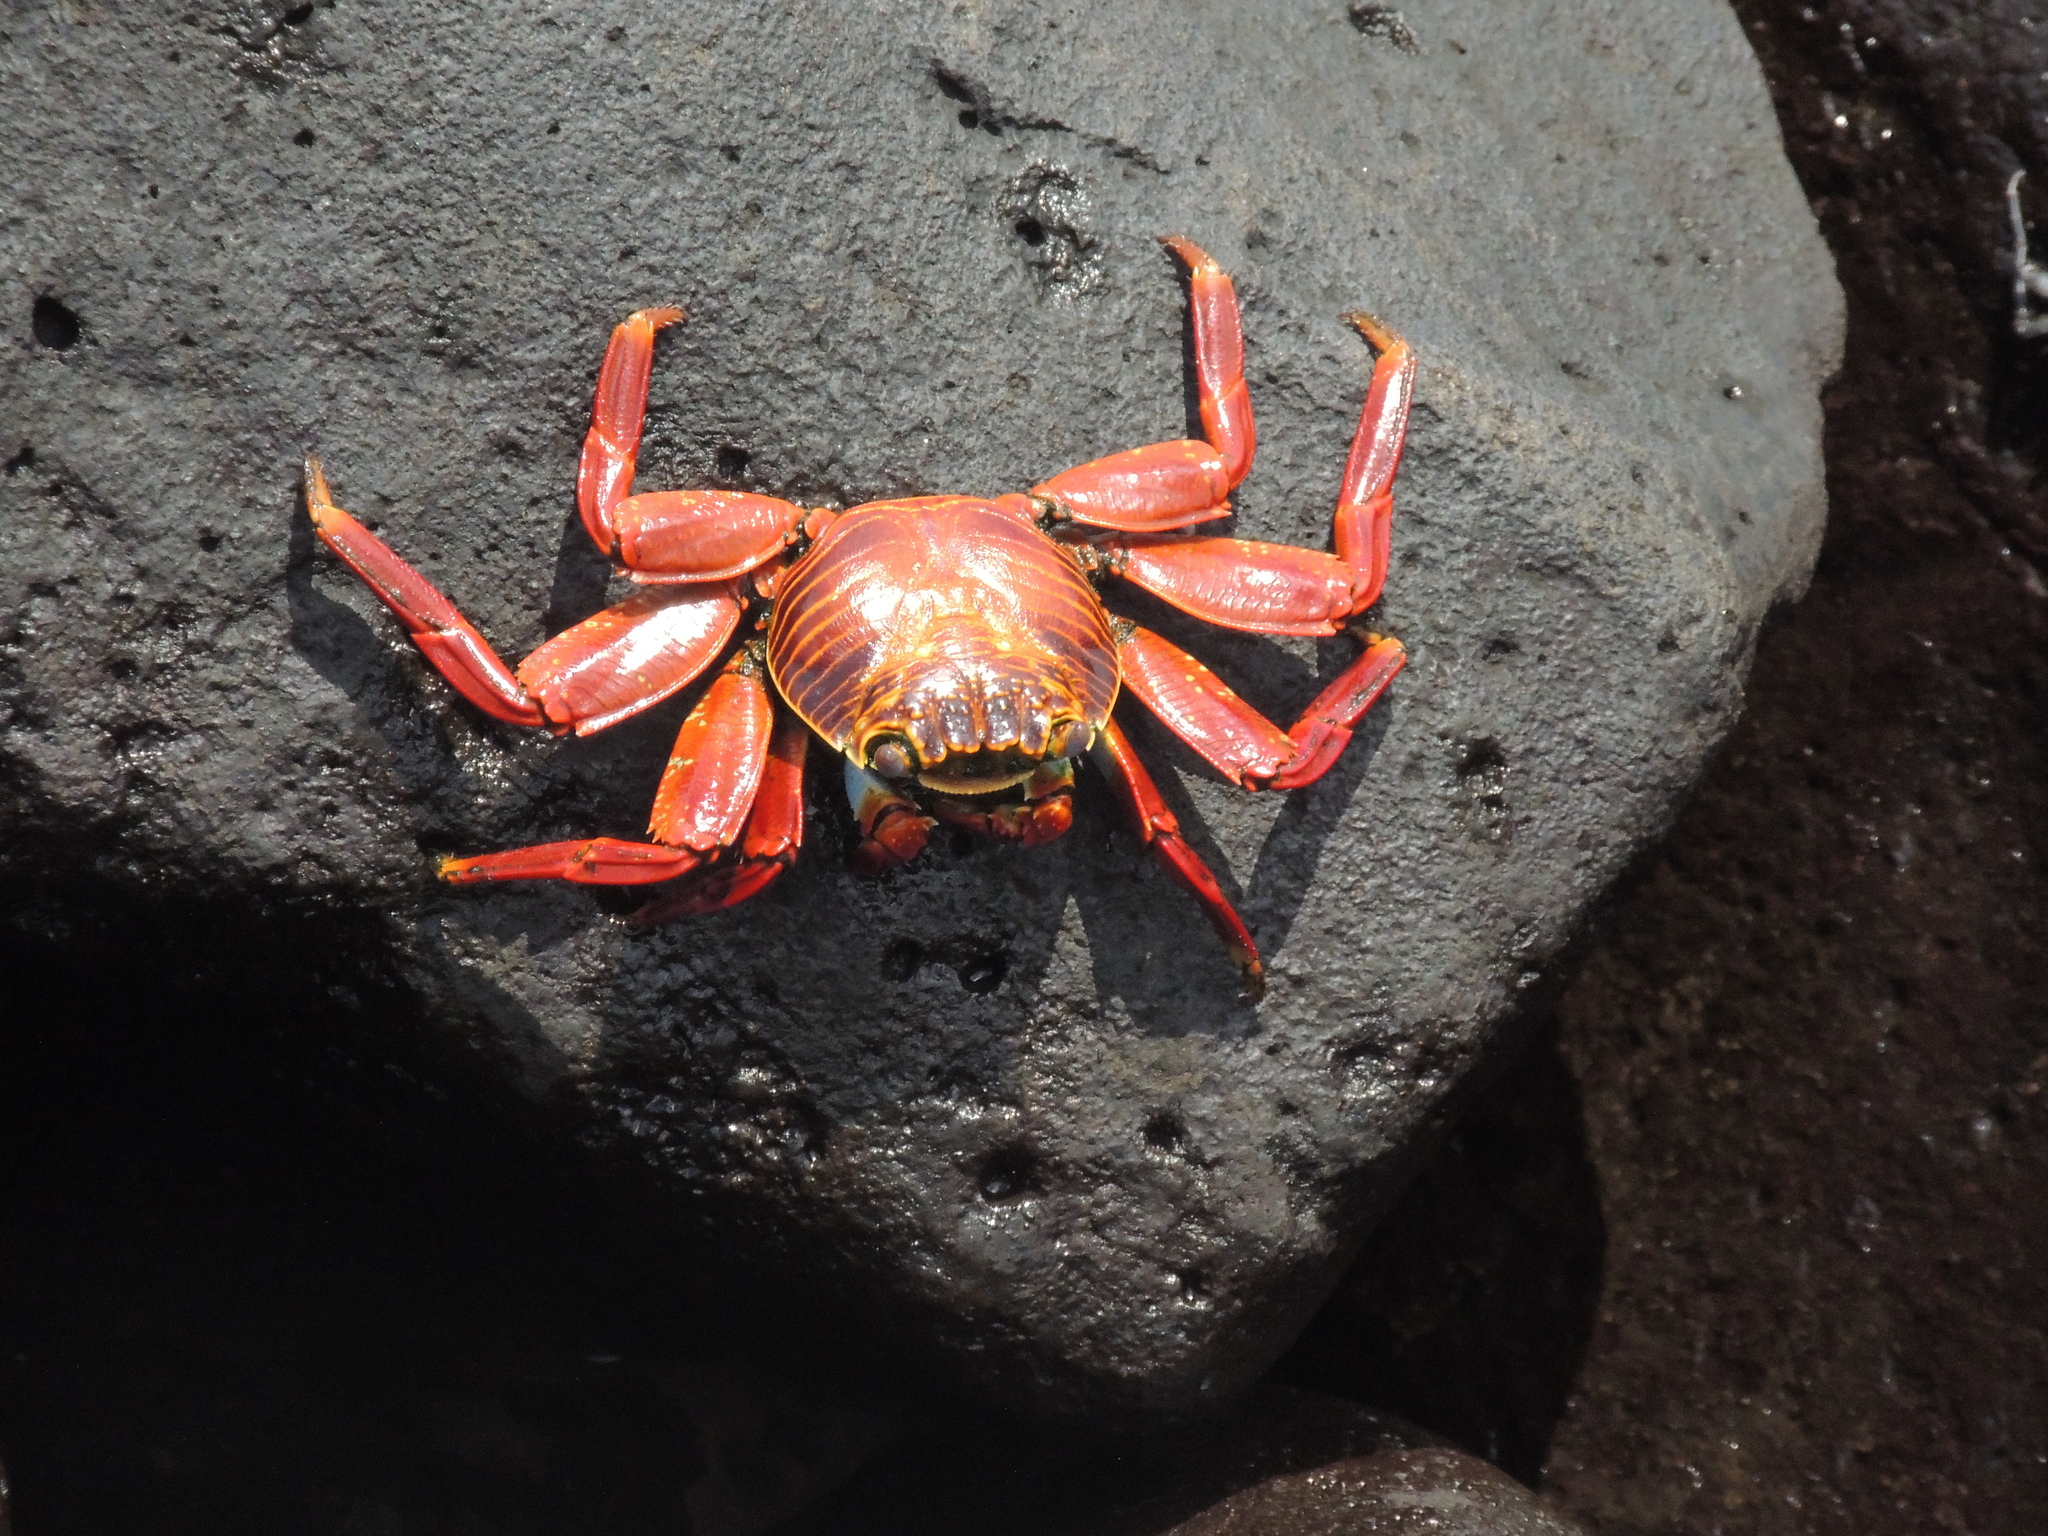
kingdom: Animalia
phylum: Arthropoda
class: Malacostraca
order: Decapoda
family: Grapsidae
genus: Grapsus
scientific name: Grapsus grapsus
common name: Sally lightfoot
